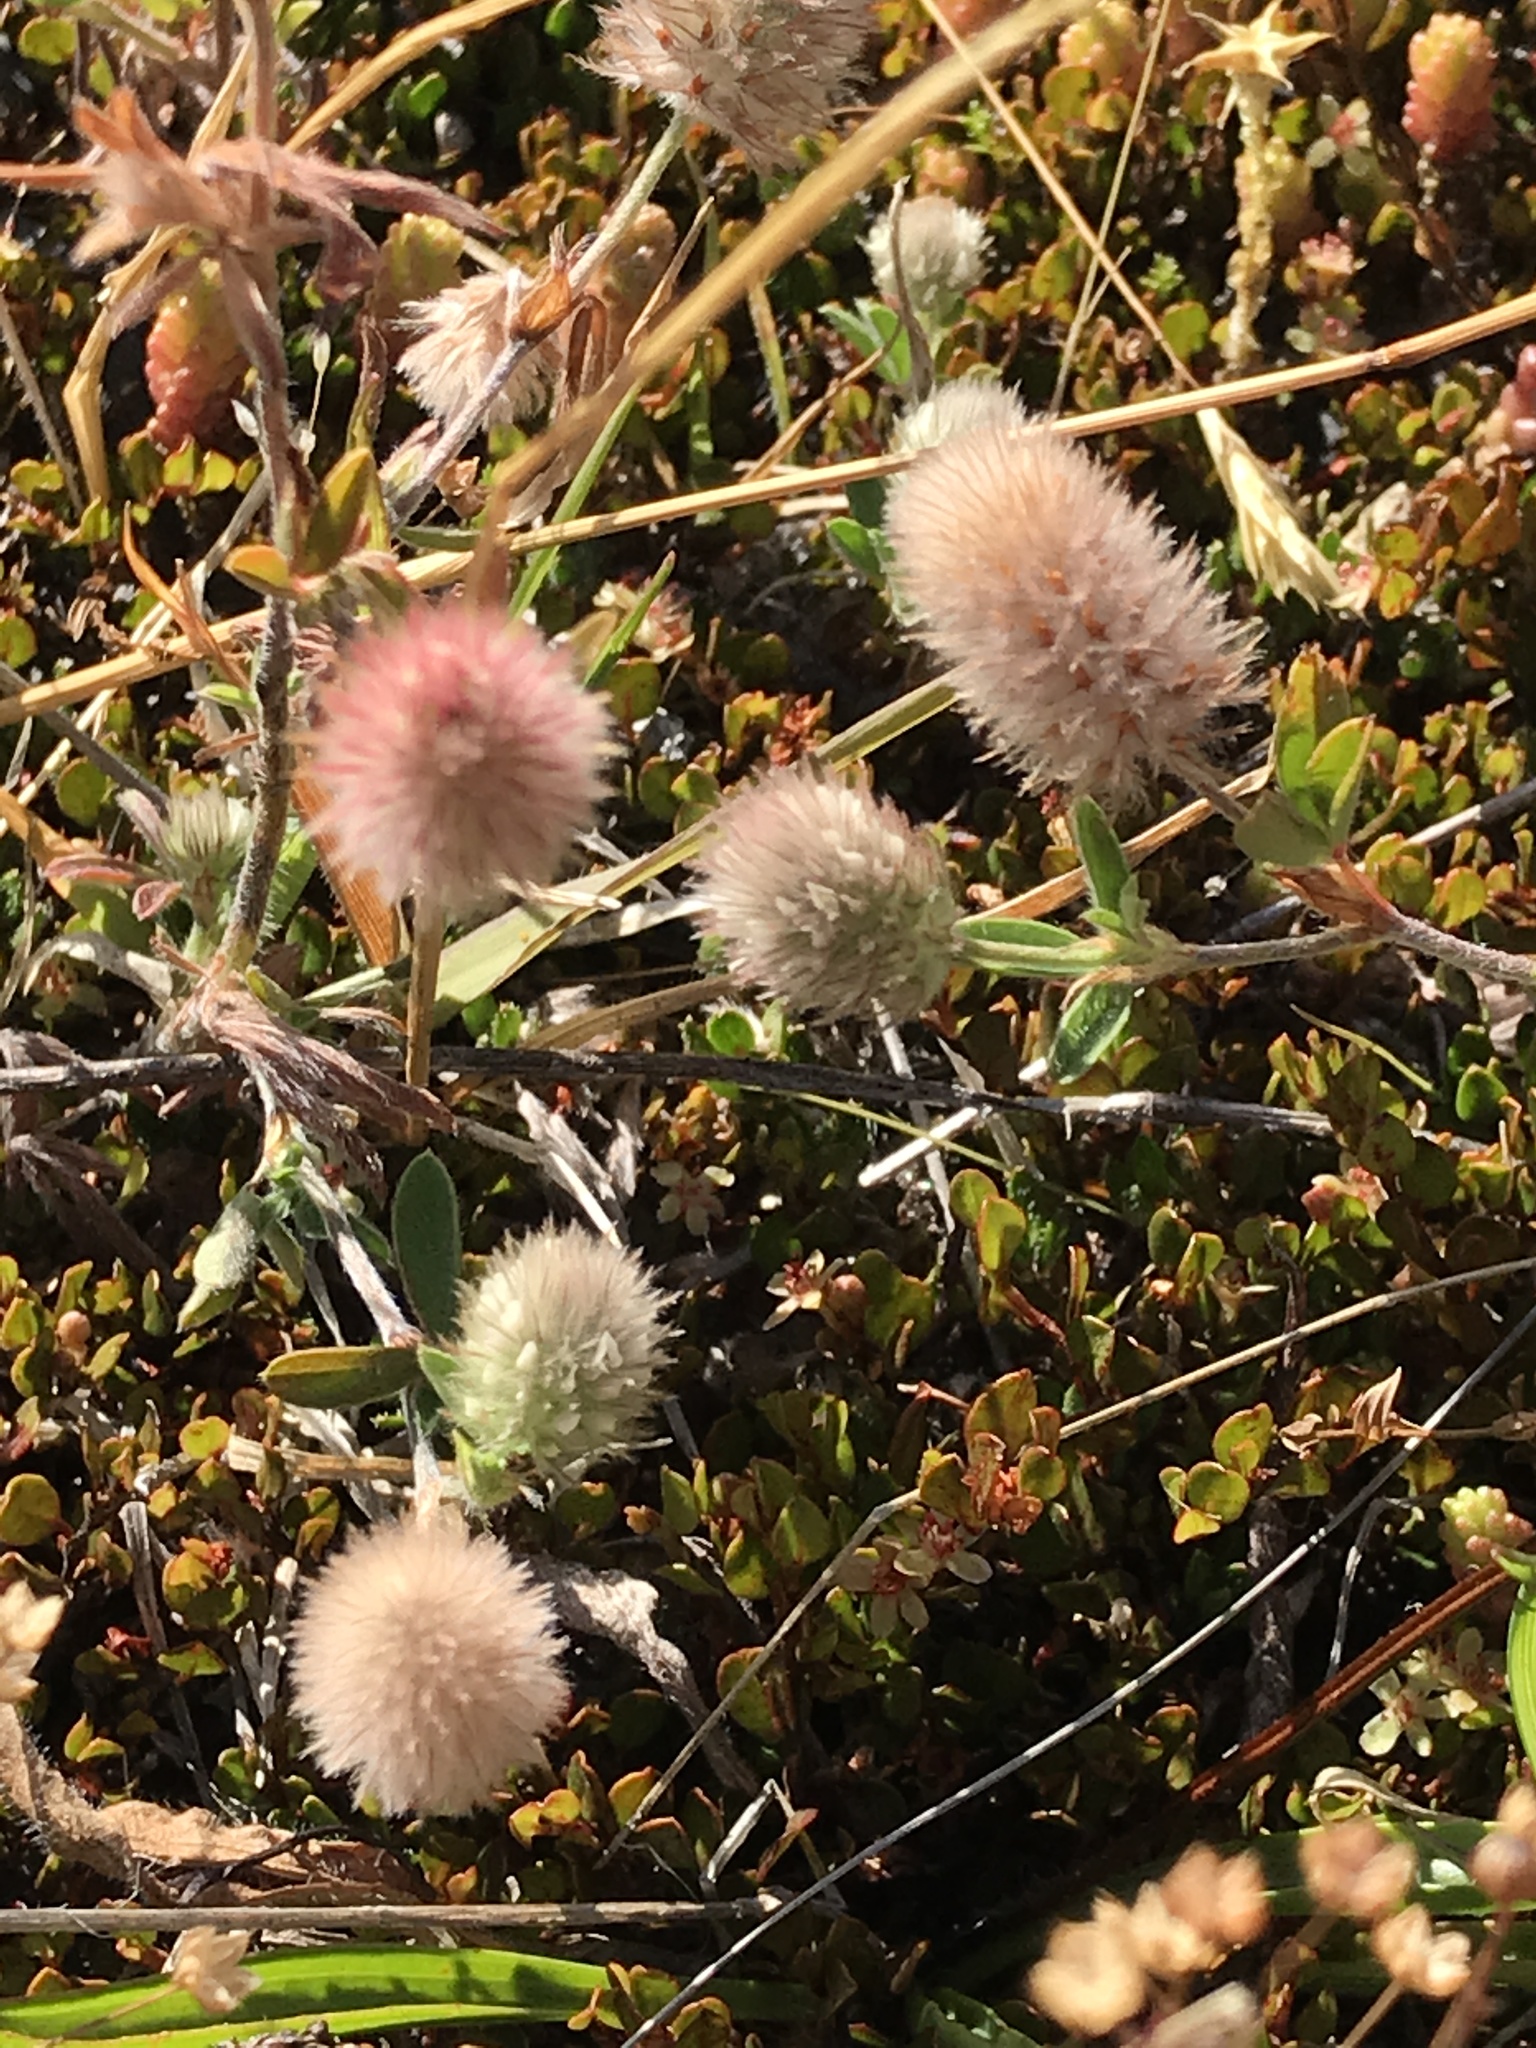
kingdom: Plantae
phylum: Tracheophyta
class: Magnoliopsida
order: Fabales
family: Fabaceae
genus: Trifolium
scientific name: Trifolium arvense
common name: Hare's-foot clover
